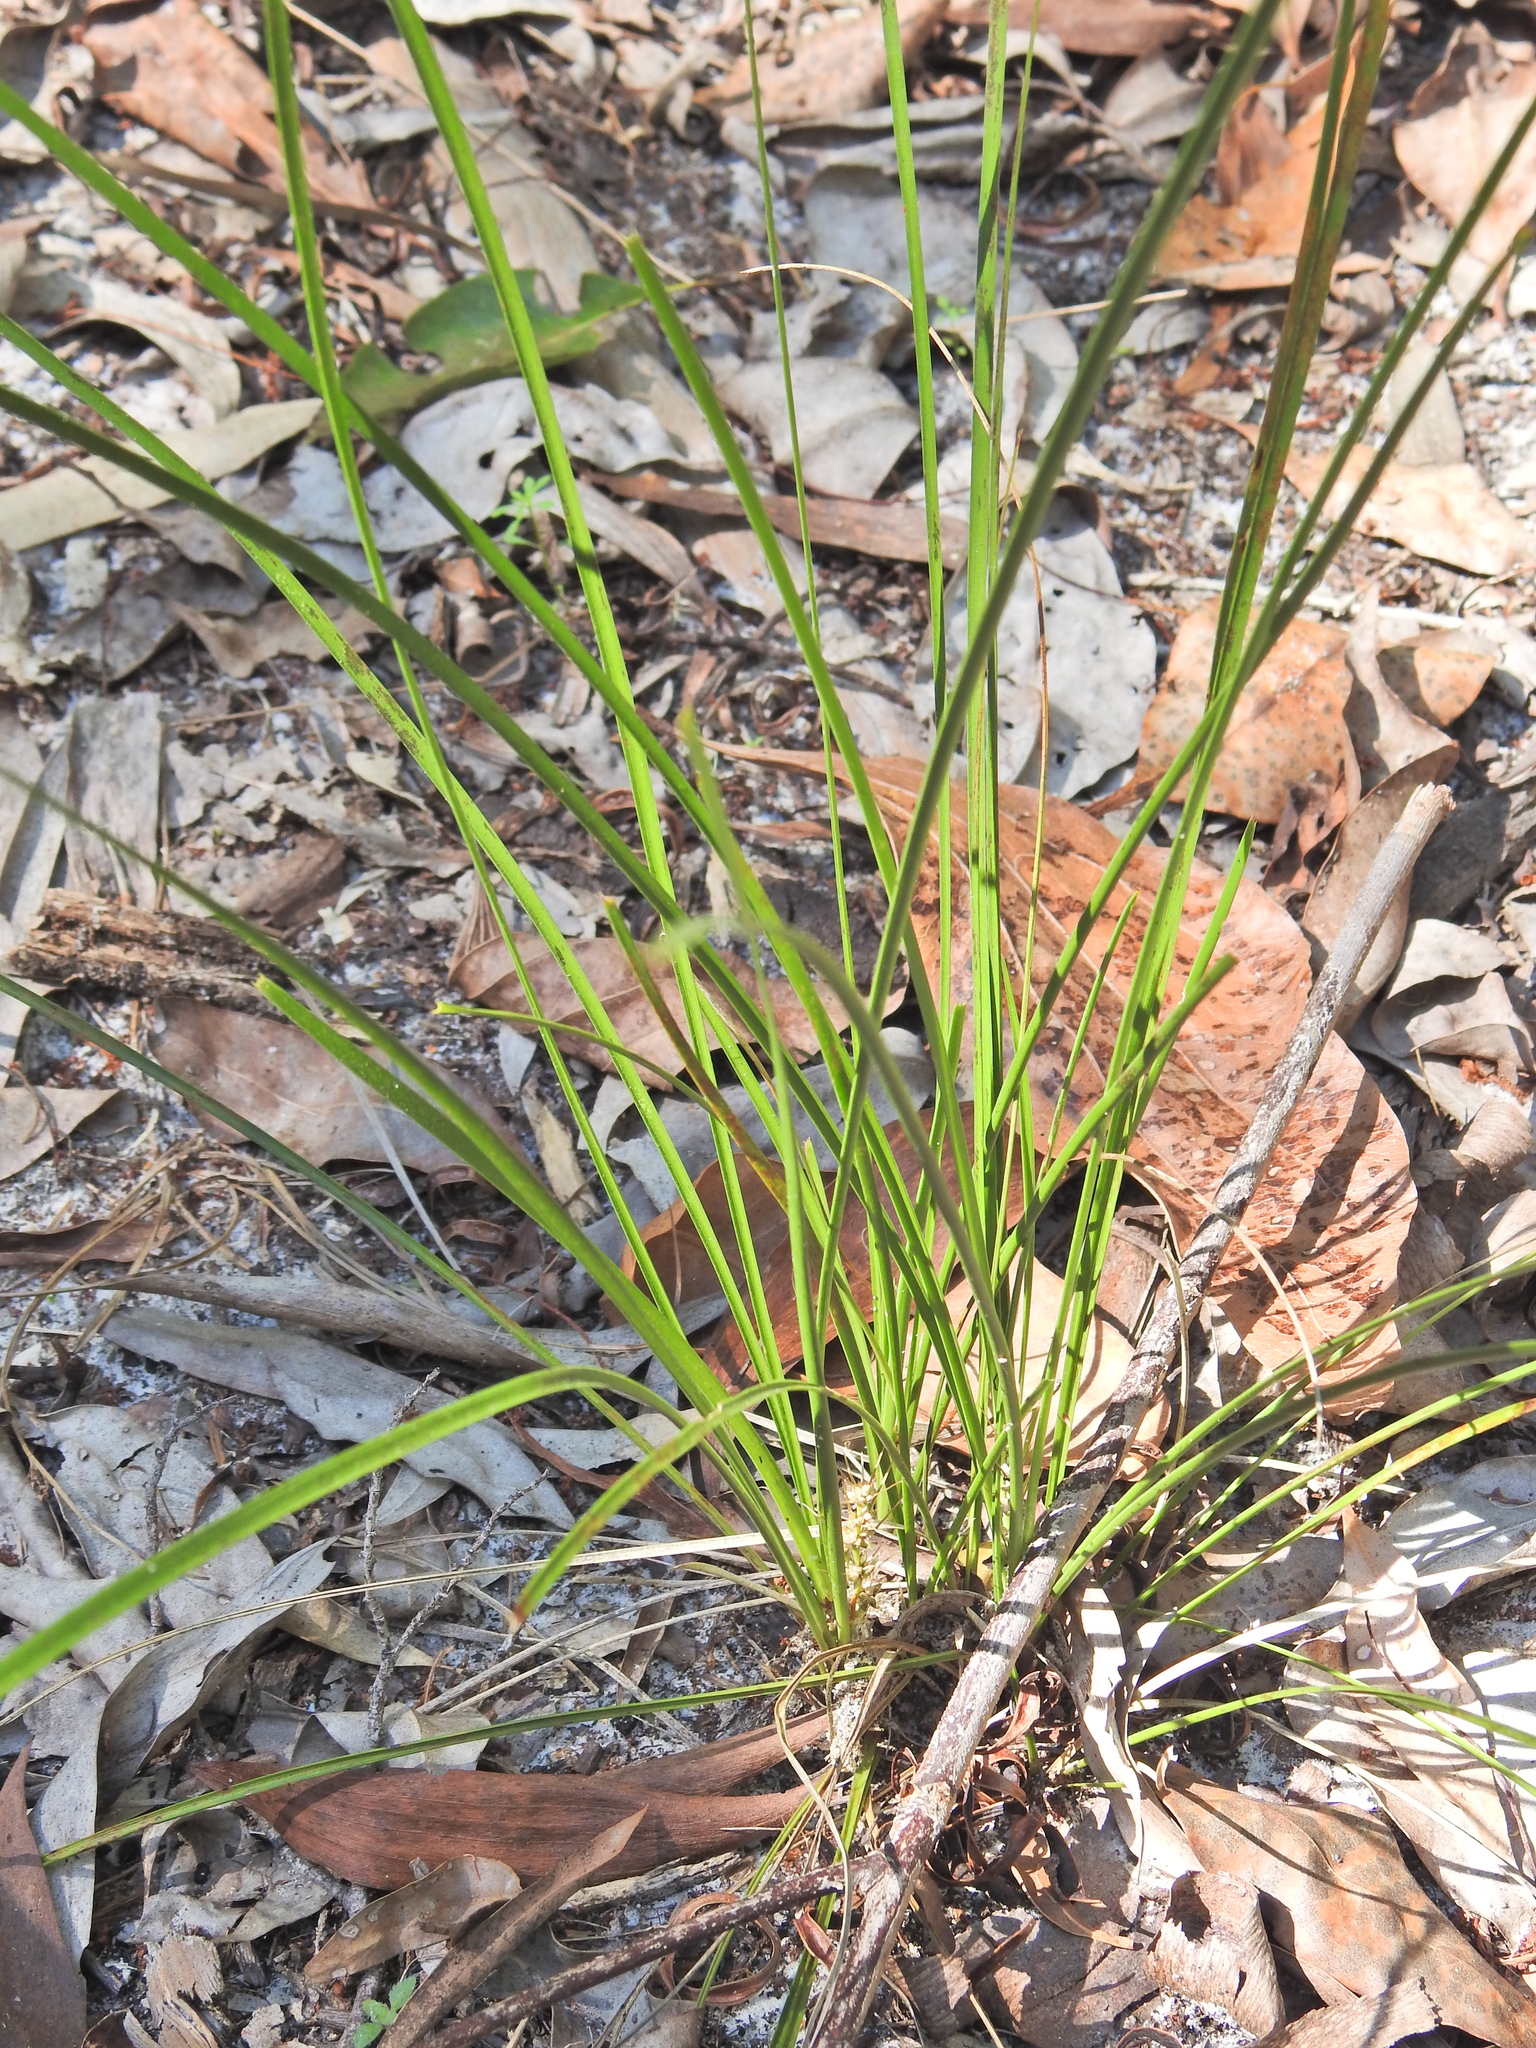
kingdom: Plantae
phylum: Tracheophyta
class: Liliopsida
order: Asparagales
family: Asparagaceae
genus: Lomandra
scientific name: Lomandra confertifolia
